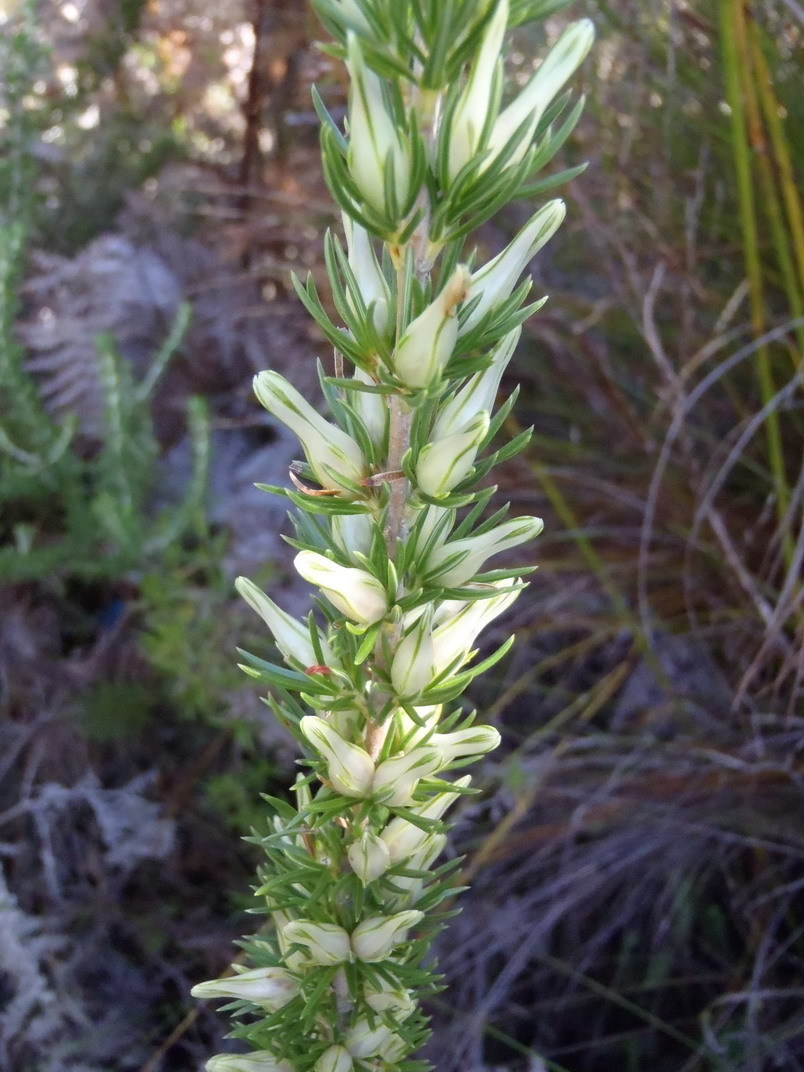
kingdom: Plantae
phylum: Tracheophyta
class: Magnoliopsida
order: Ericales
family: Ericaceae
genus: Erica
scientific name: Erica nabea
